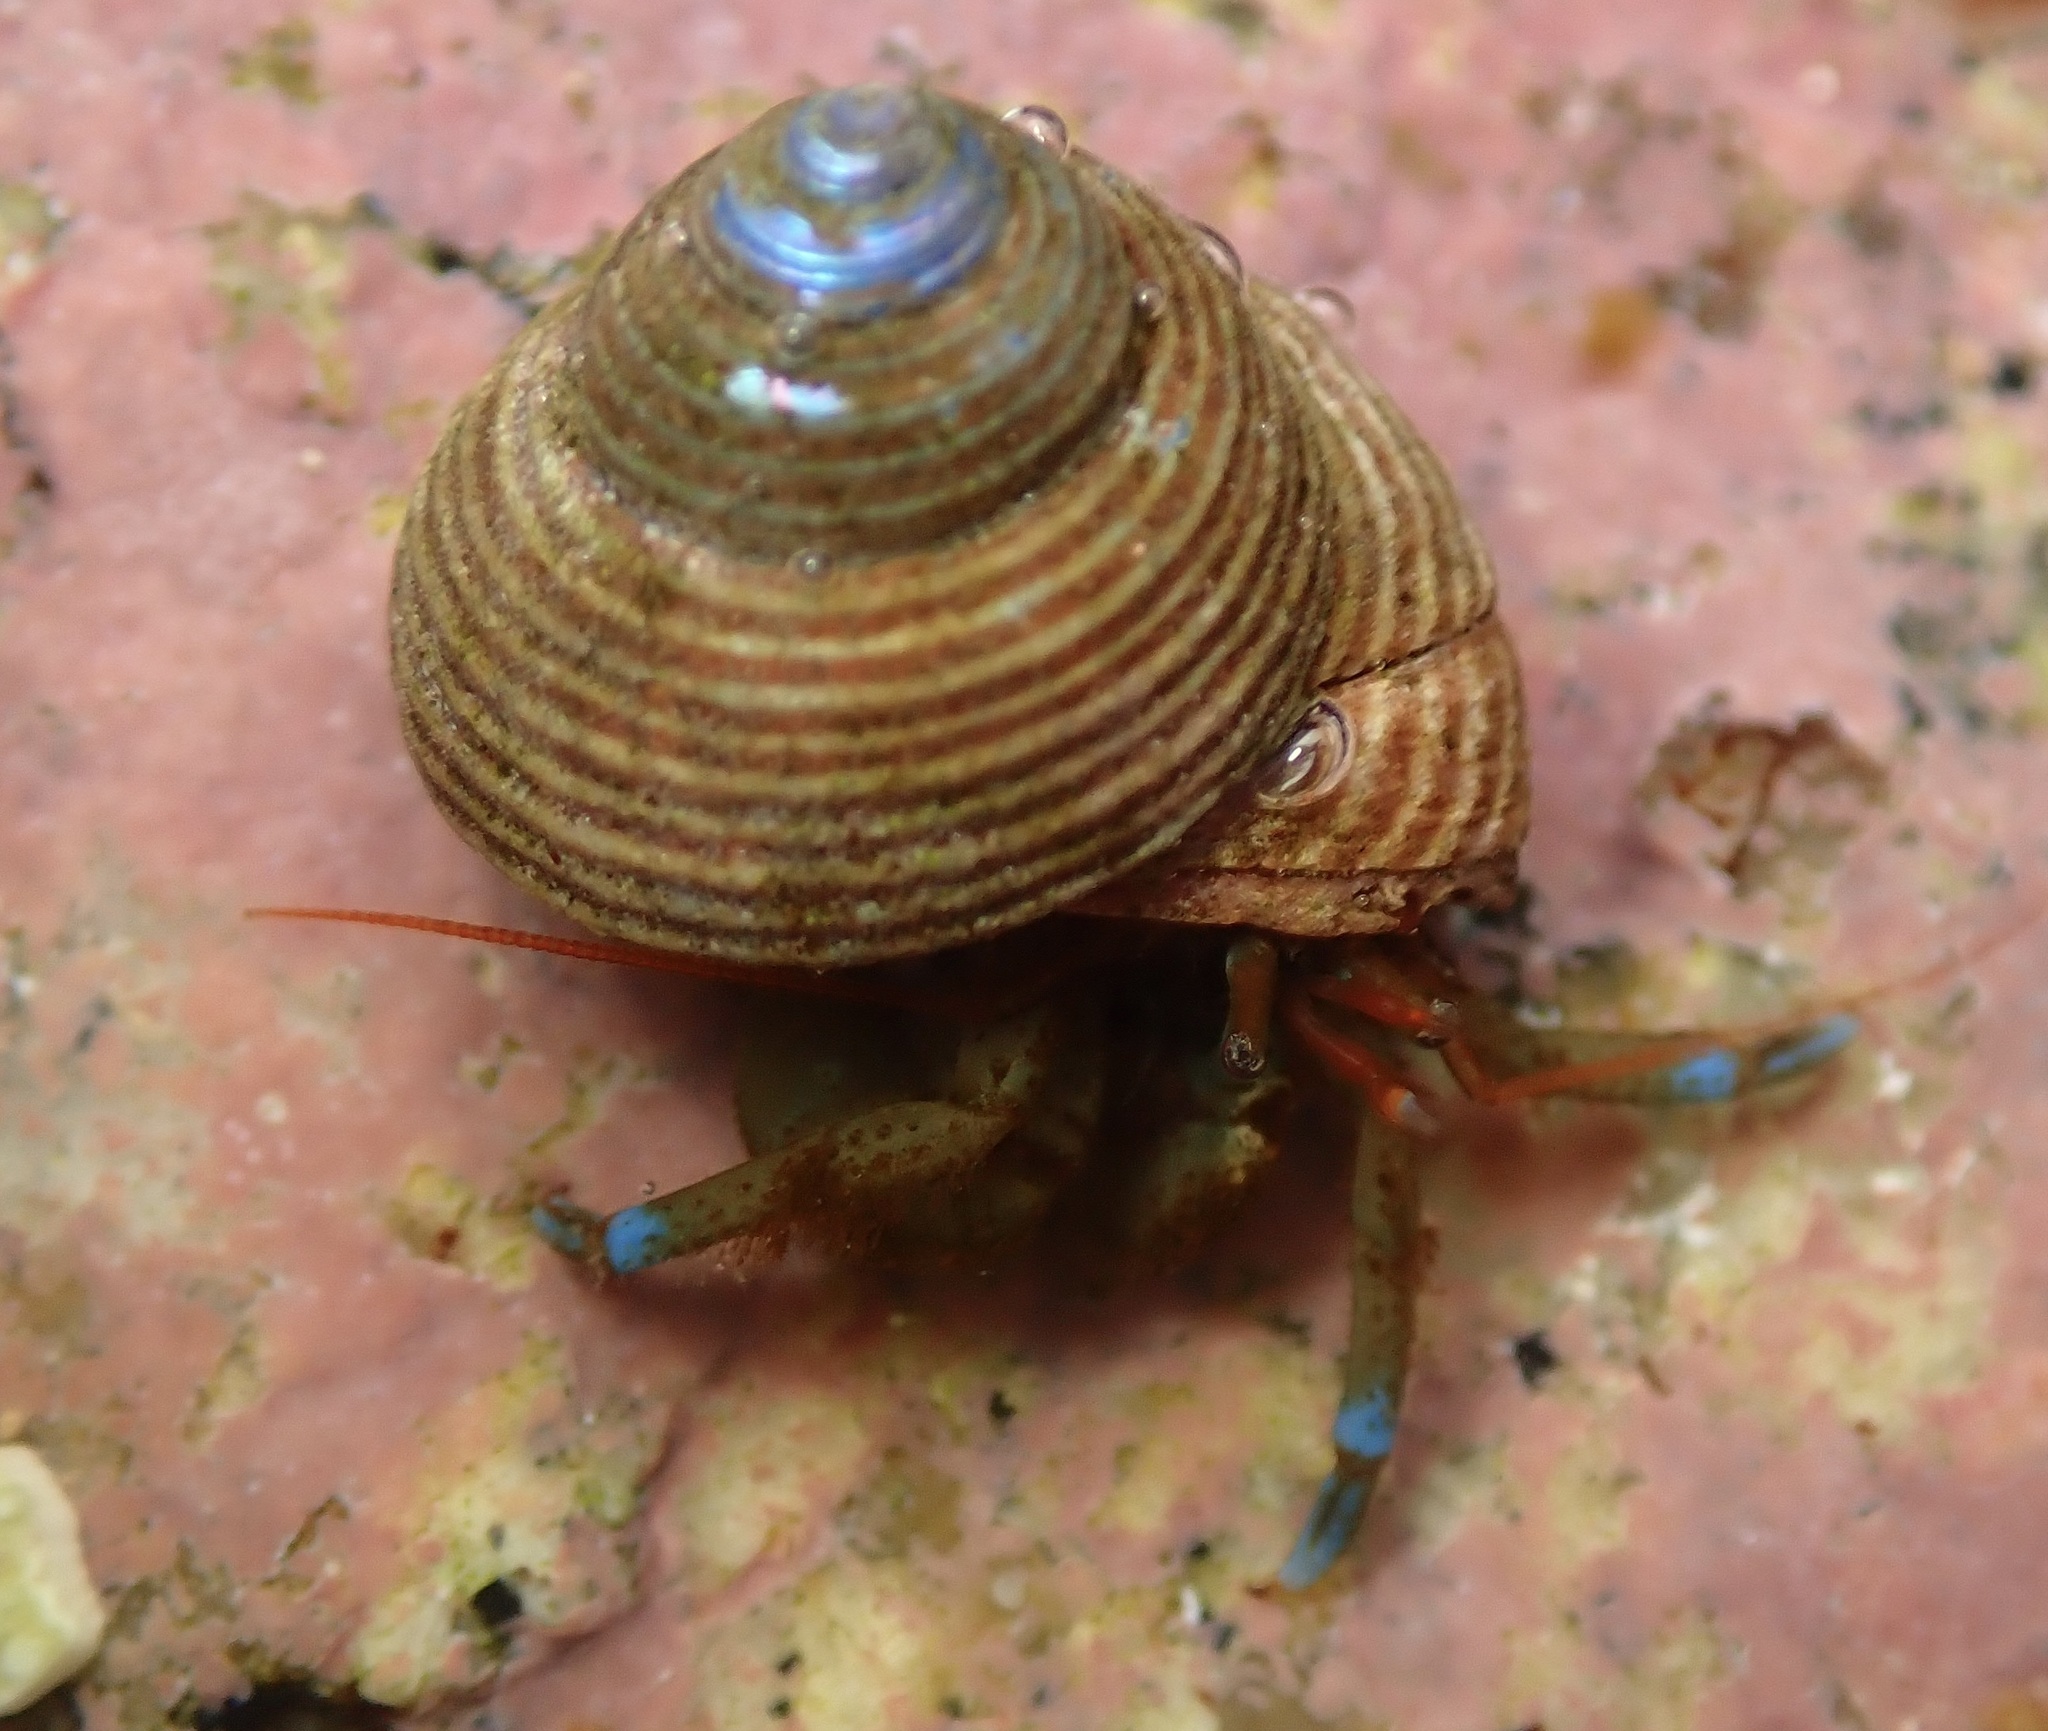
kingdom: Animalia
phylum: Arthropoda
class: Malacostraca
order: Decapoda
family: Paguridae
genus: Pagurus
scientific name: Pagurus samuelis
